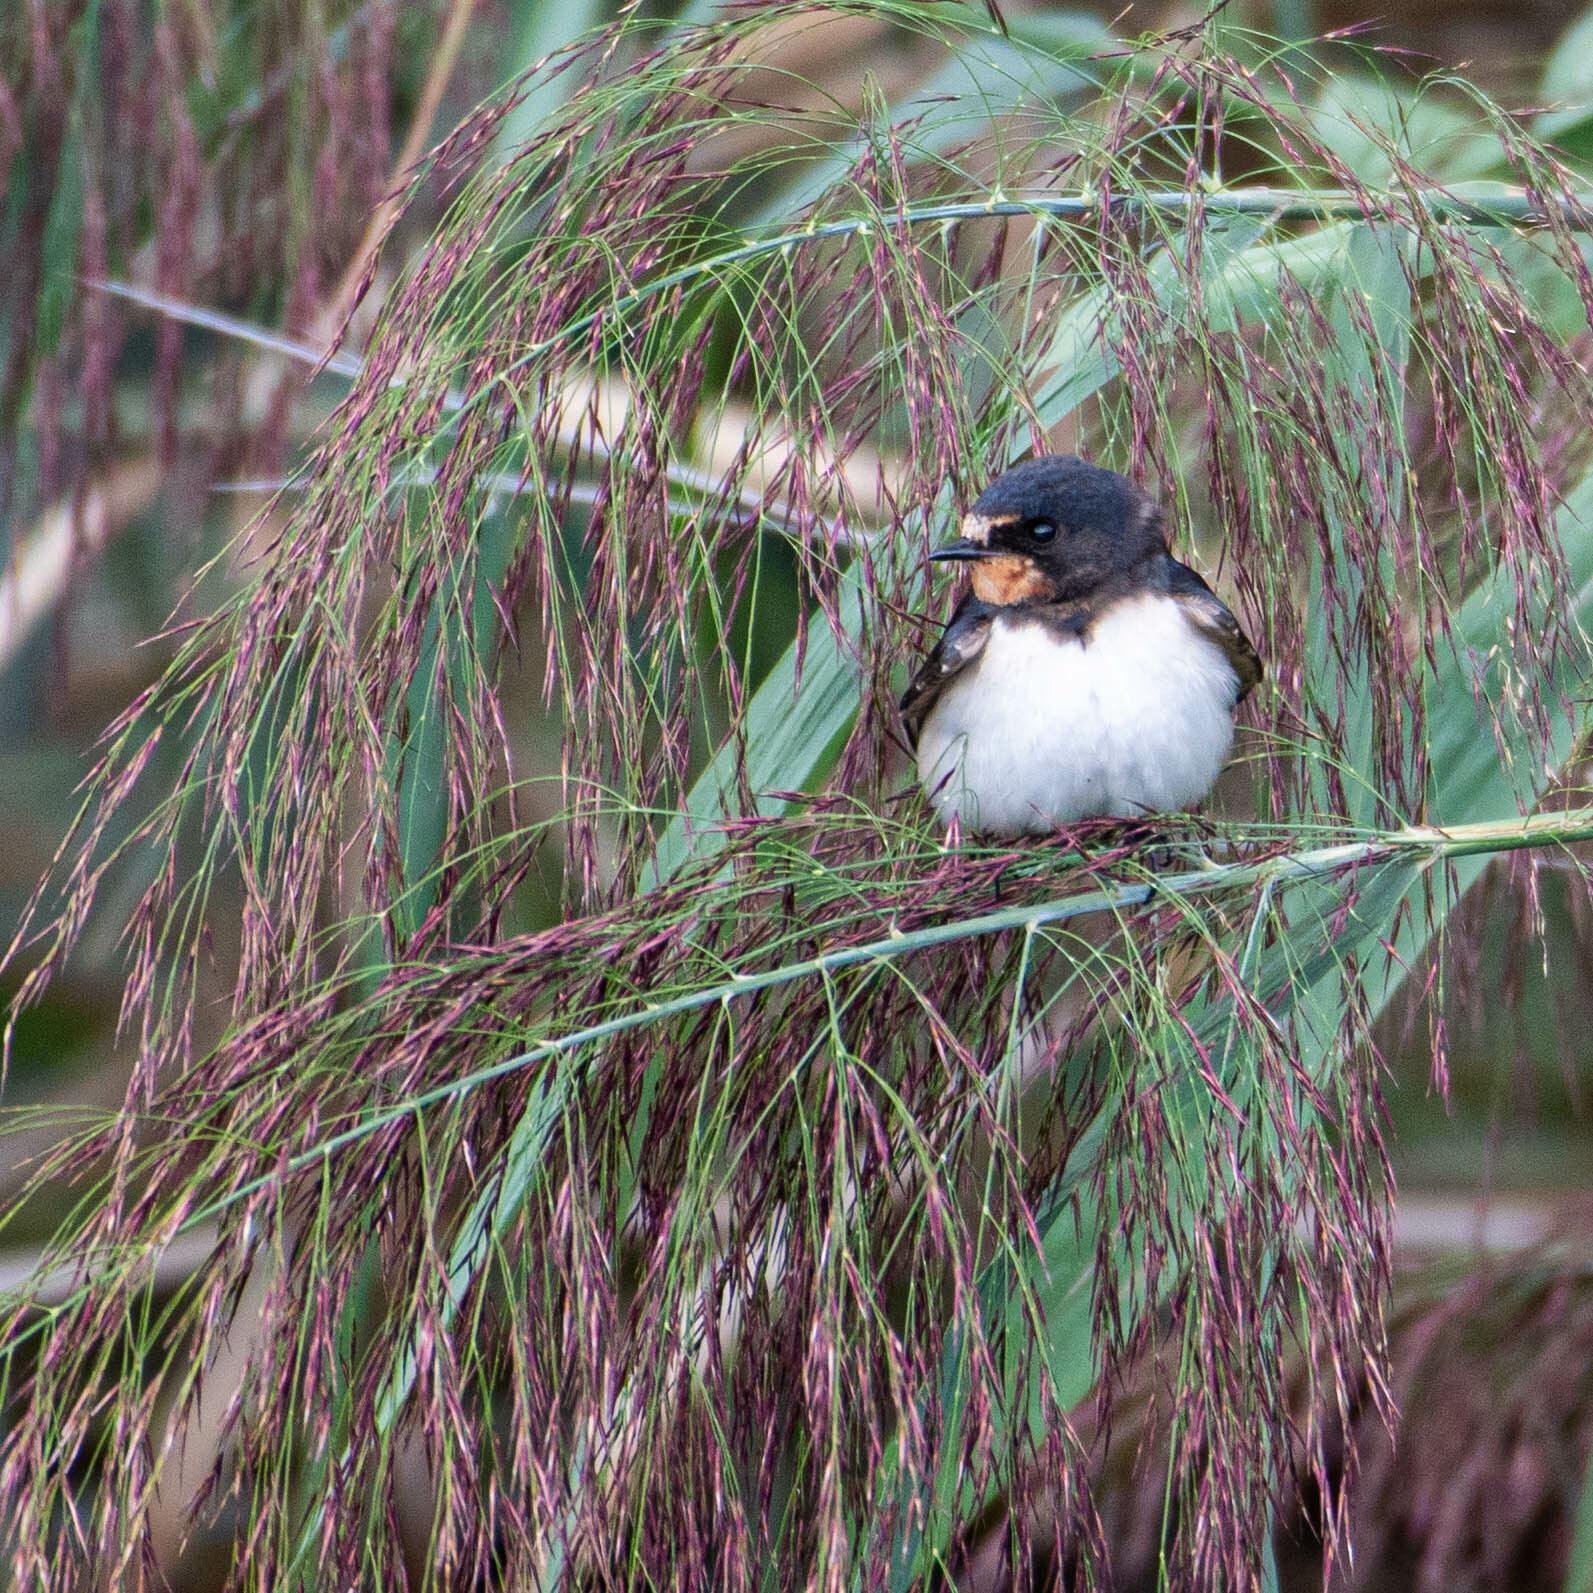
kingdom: Animalia
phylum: Chordata
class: Aves
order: Passeriformes
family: Hirundinidae
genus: Hirundo
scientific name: Hirundo rustica
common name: Barn swallow
